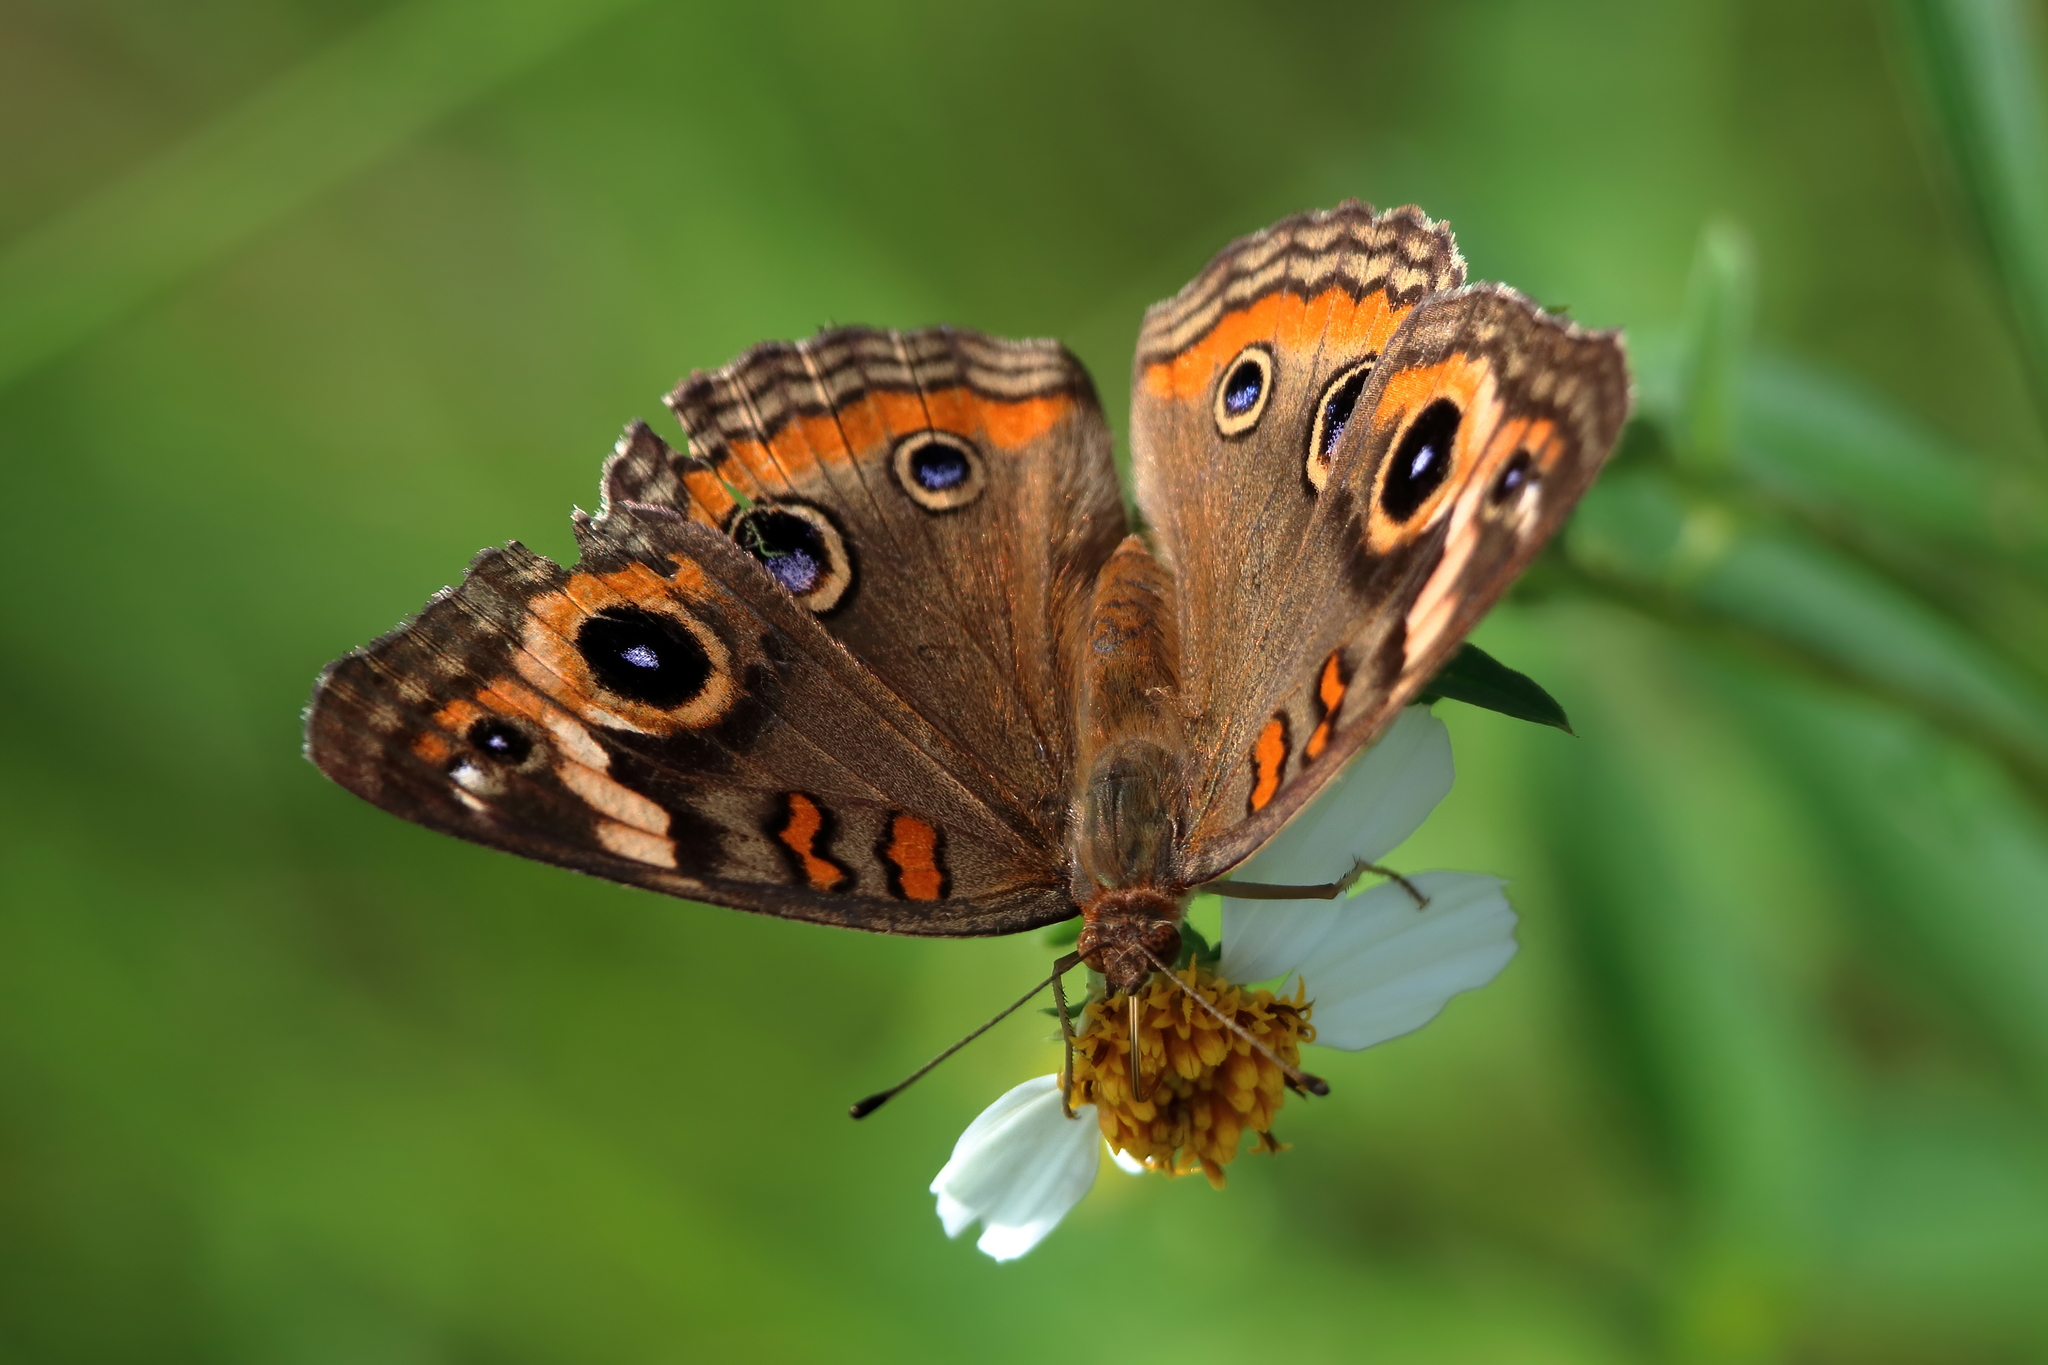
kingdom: Animalia
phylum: Arthropoda
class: Insecta
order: Lepidoptera
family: Nymphalidae
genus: Junonia
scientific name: Junonia neildi
